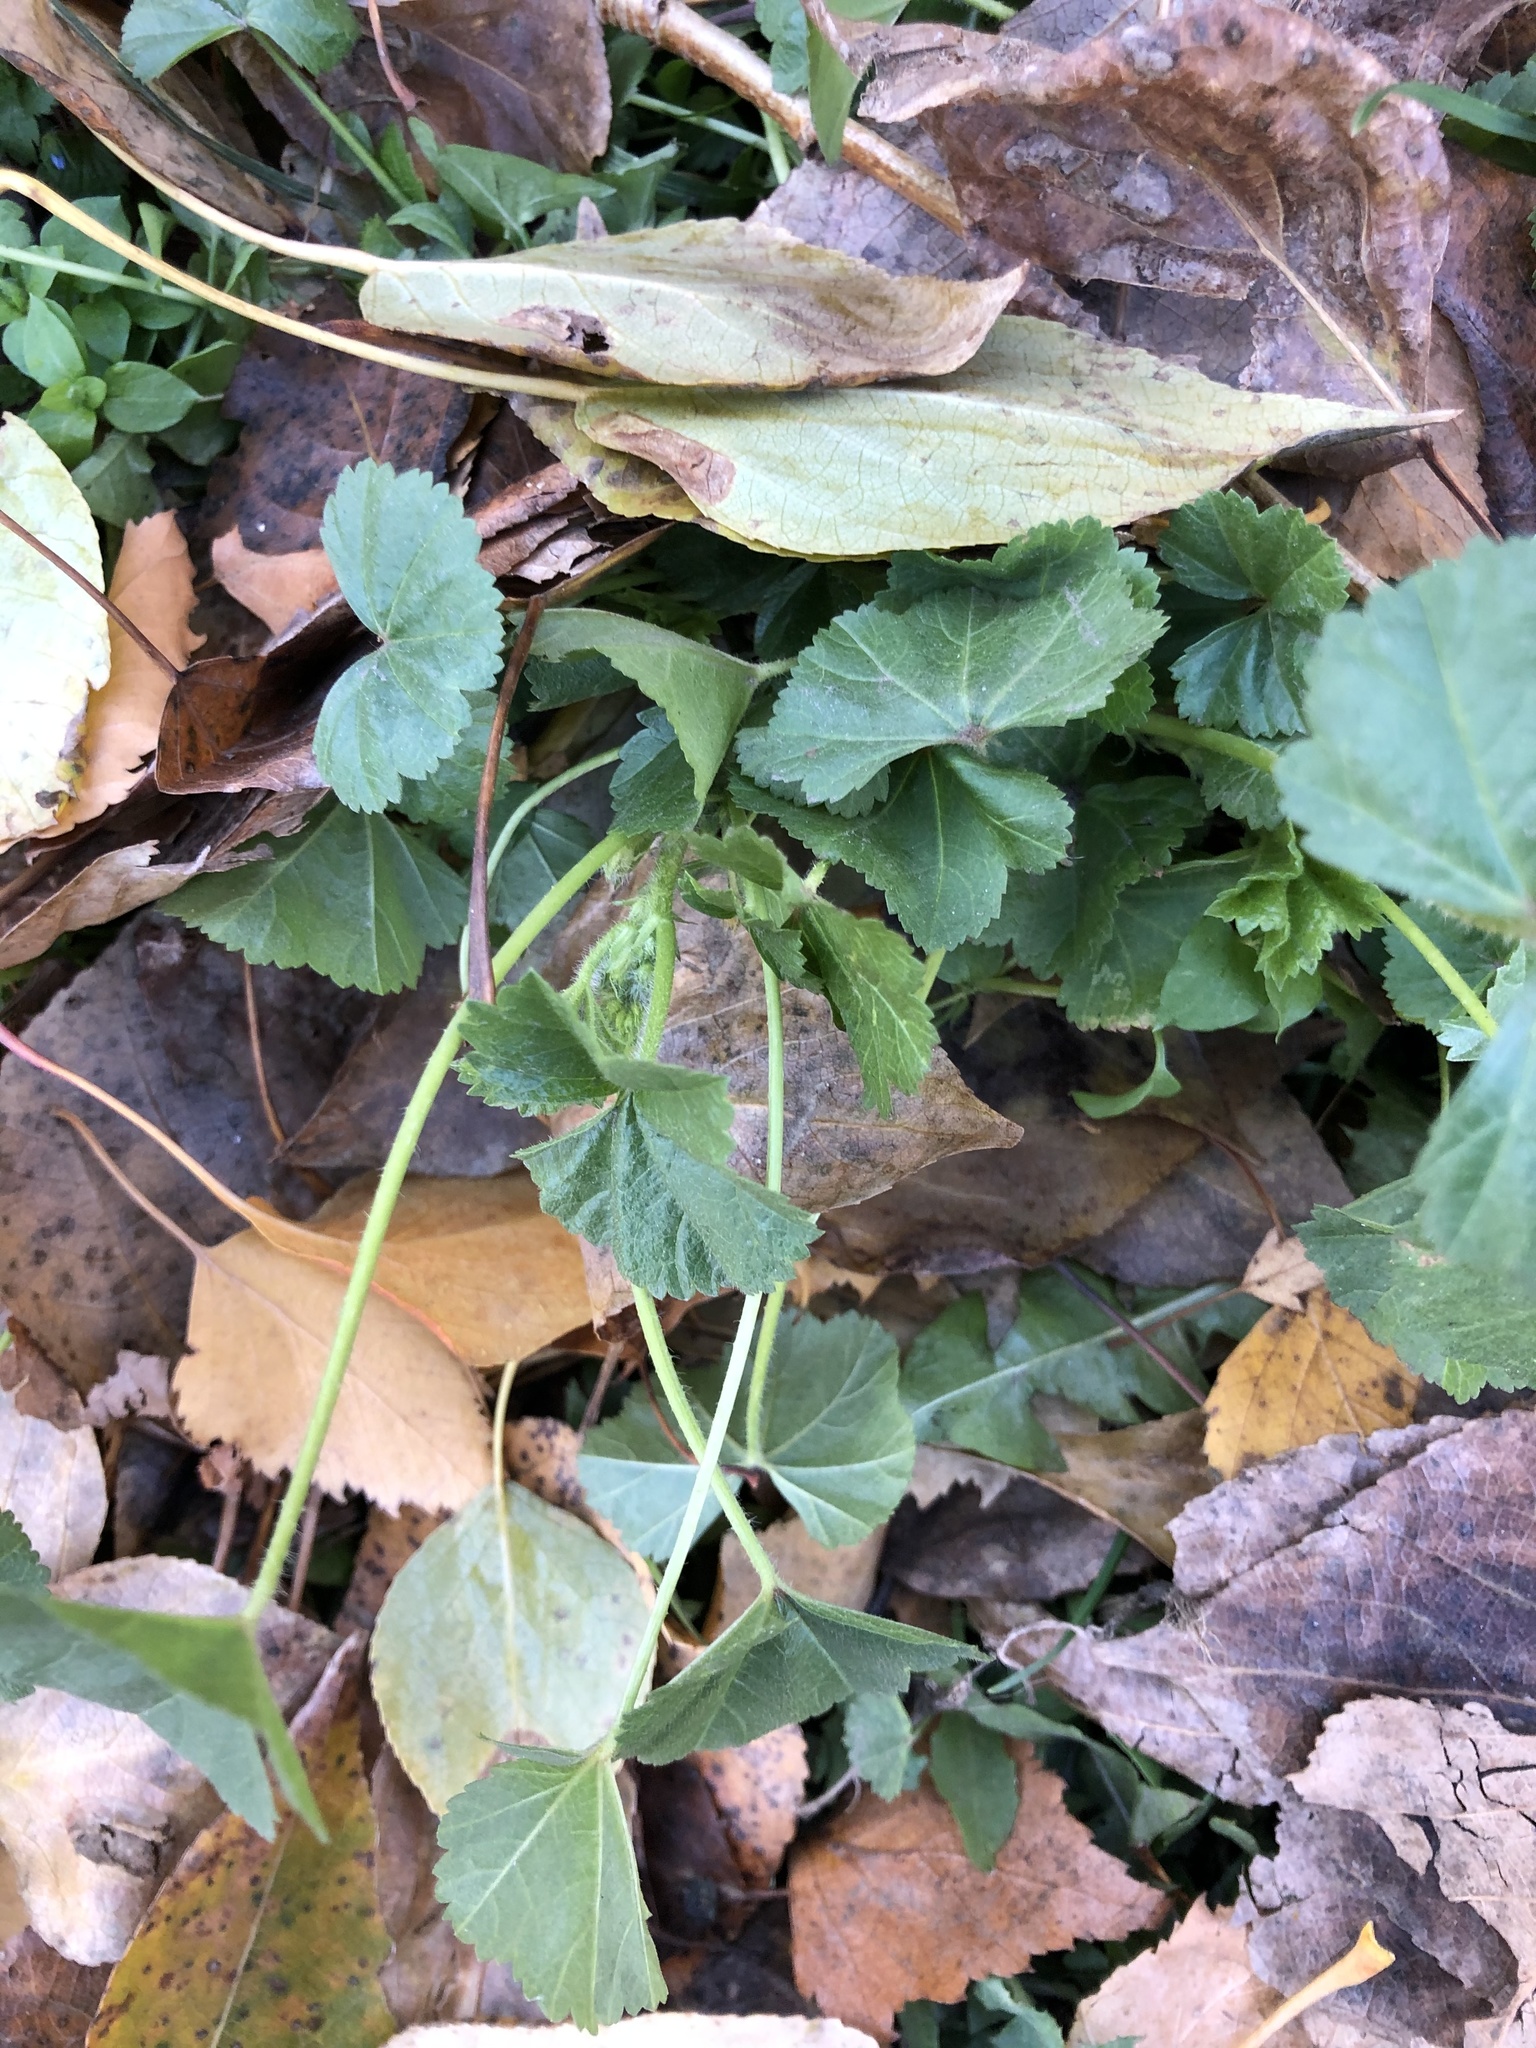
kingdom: Plantae
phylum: Tracheophyta
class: Magnoliopsida
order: Malvales
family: Malvaceae
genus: Malva
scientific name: Malva pusilla
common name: Small mallow
